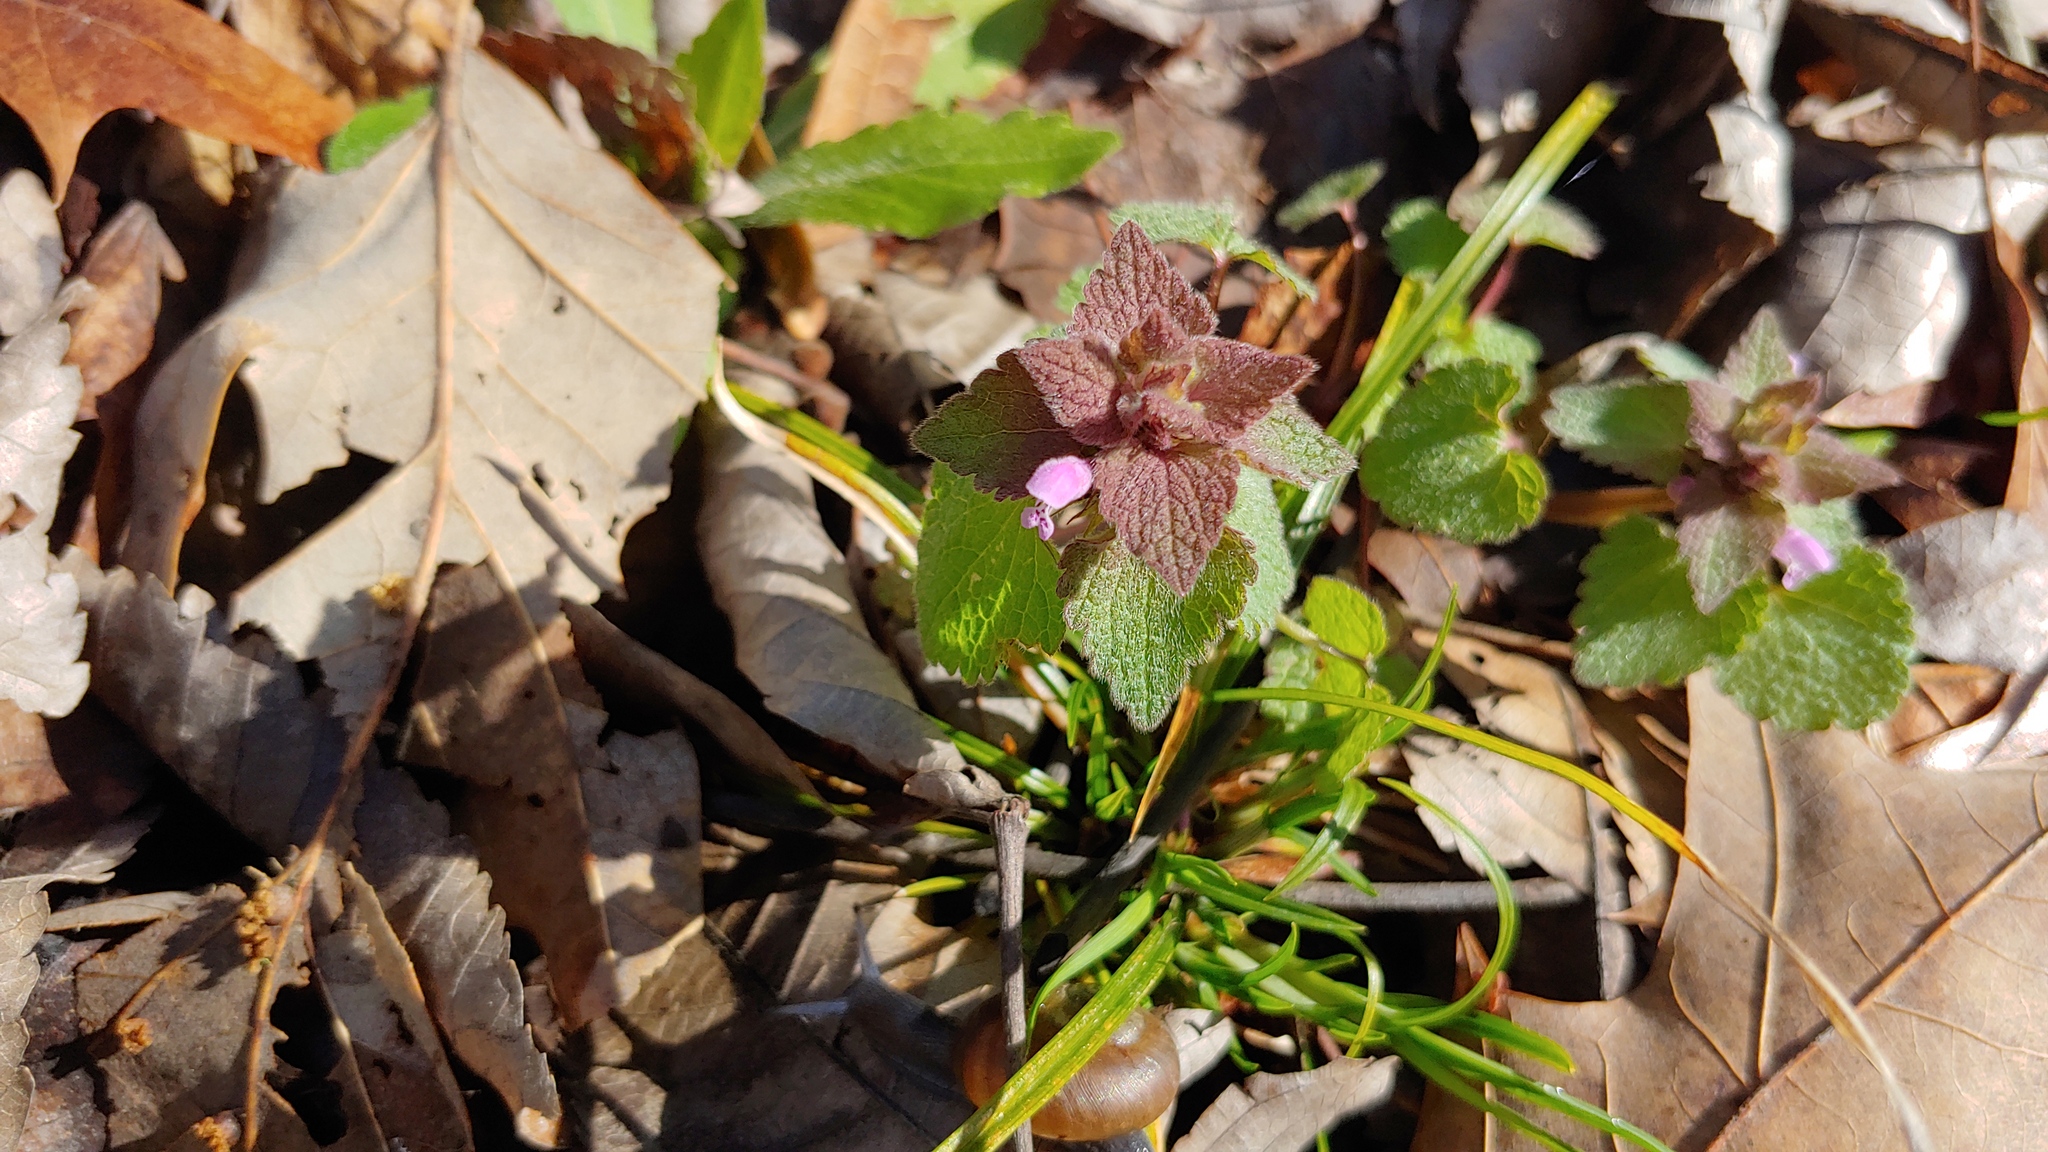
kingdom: Plantae
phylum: Tracheophyta
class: Magnoliopsida
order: Lamiales
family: Lamiaceae
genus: Lamium
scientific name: Lamium purpureum
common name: Red dead-nettle
